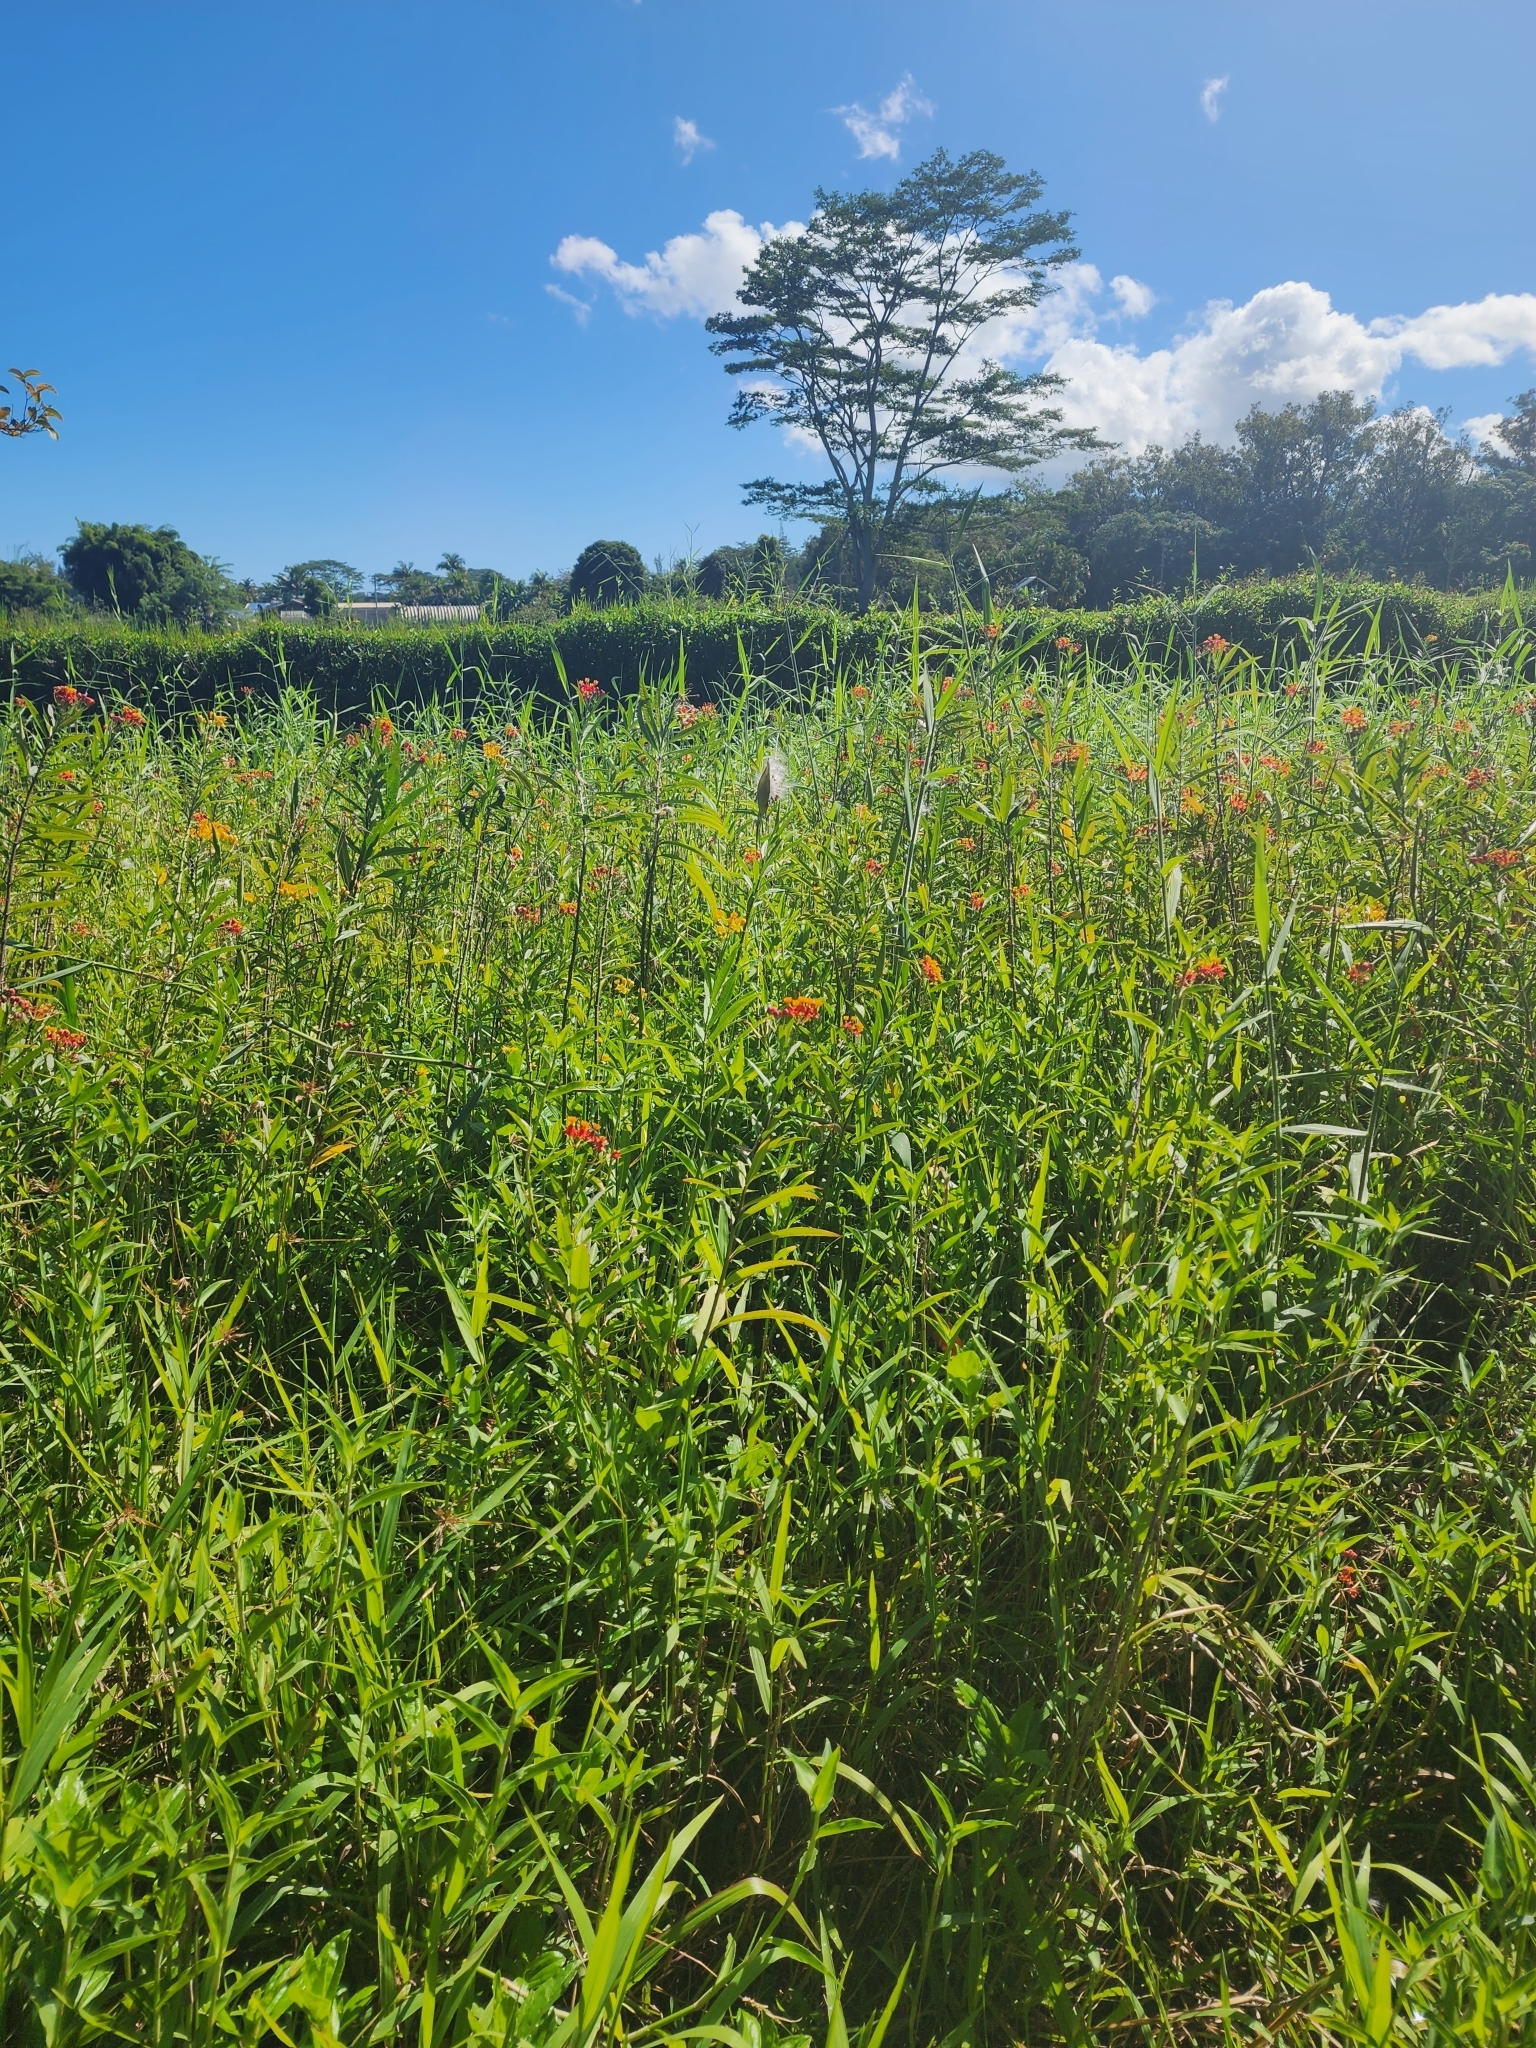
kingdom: Plantae
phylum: Tracheophyta
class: Magnoliopsida
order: Gentianales
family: Apocynaceae
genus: Asclepias
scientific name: Asclepias curassavica
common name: Bloodflower
